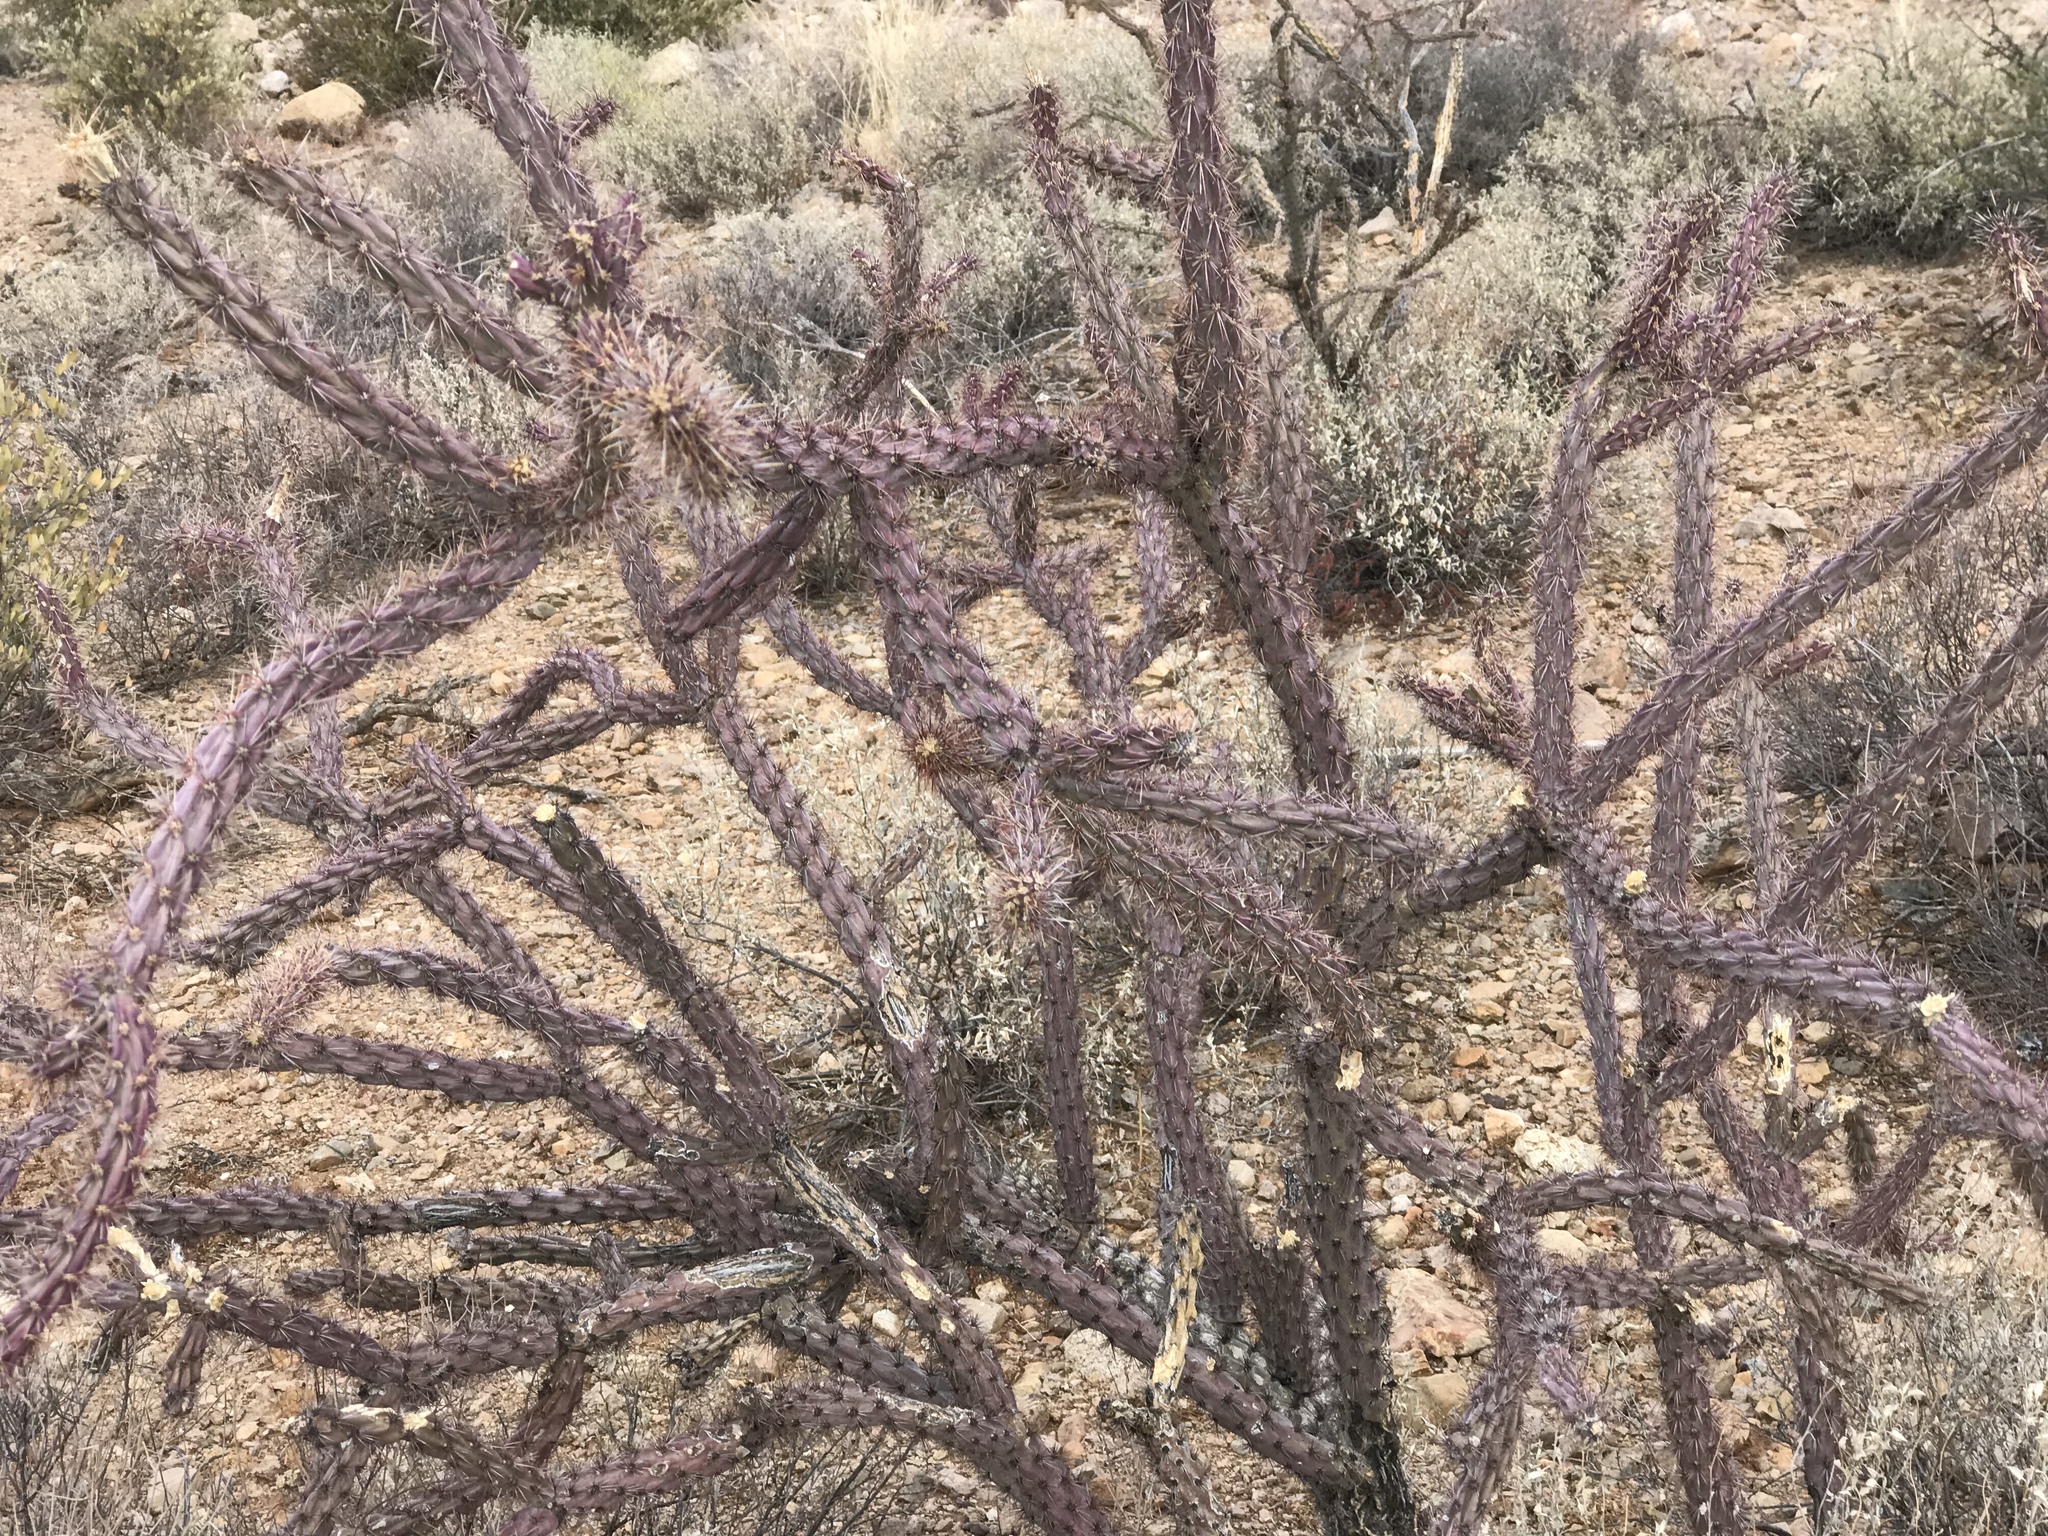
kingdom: Plantae
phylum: Tracheophyta
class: Magnoliopsida
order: Caryophyllales
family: Cactaceae
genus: Cylindropuntia
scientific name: Cylindropuntia thurberi
